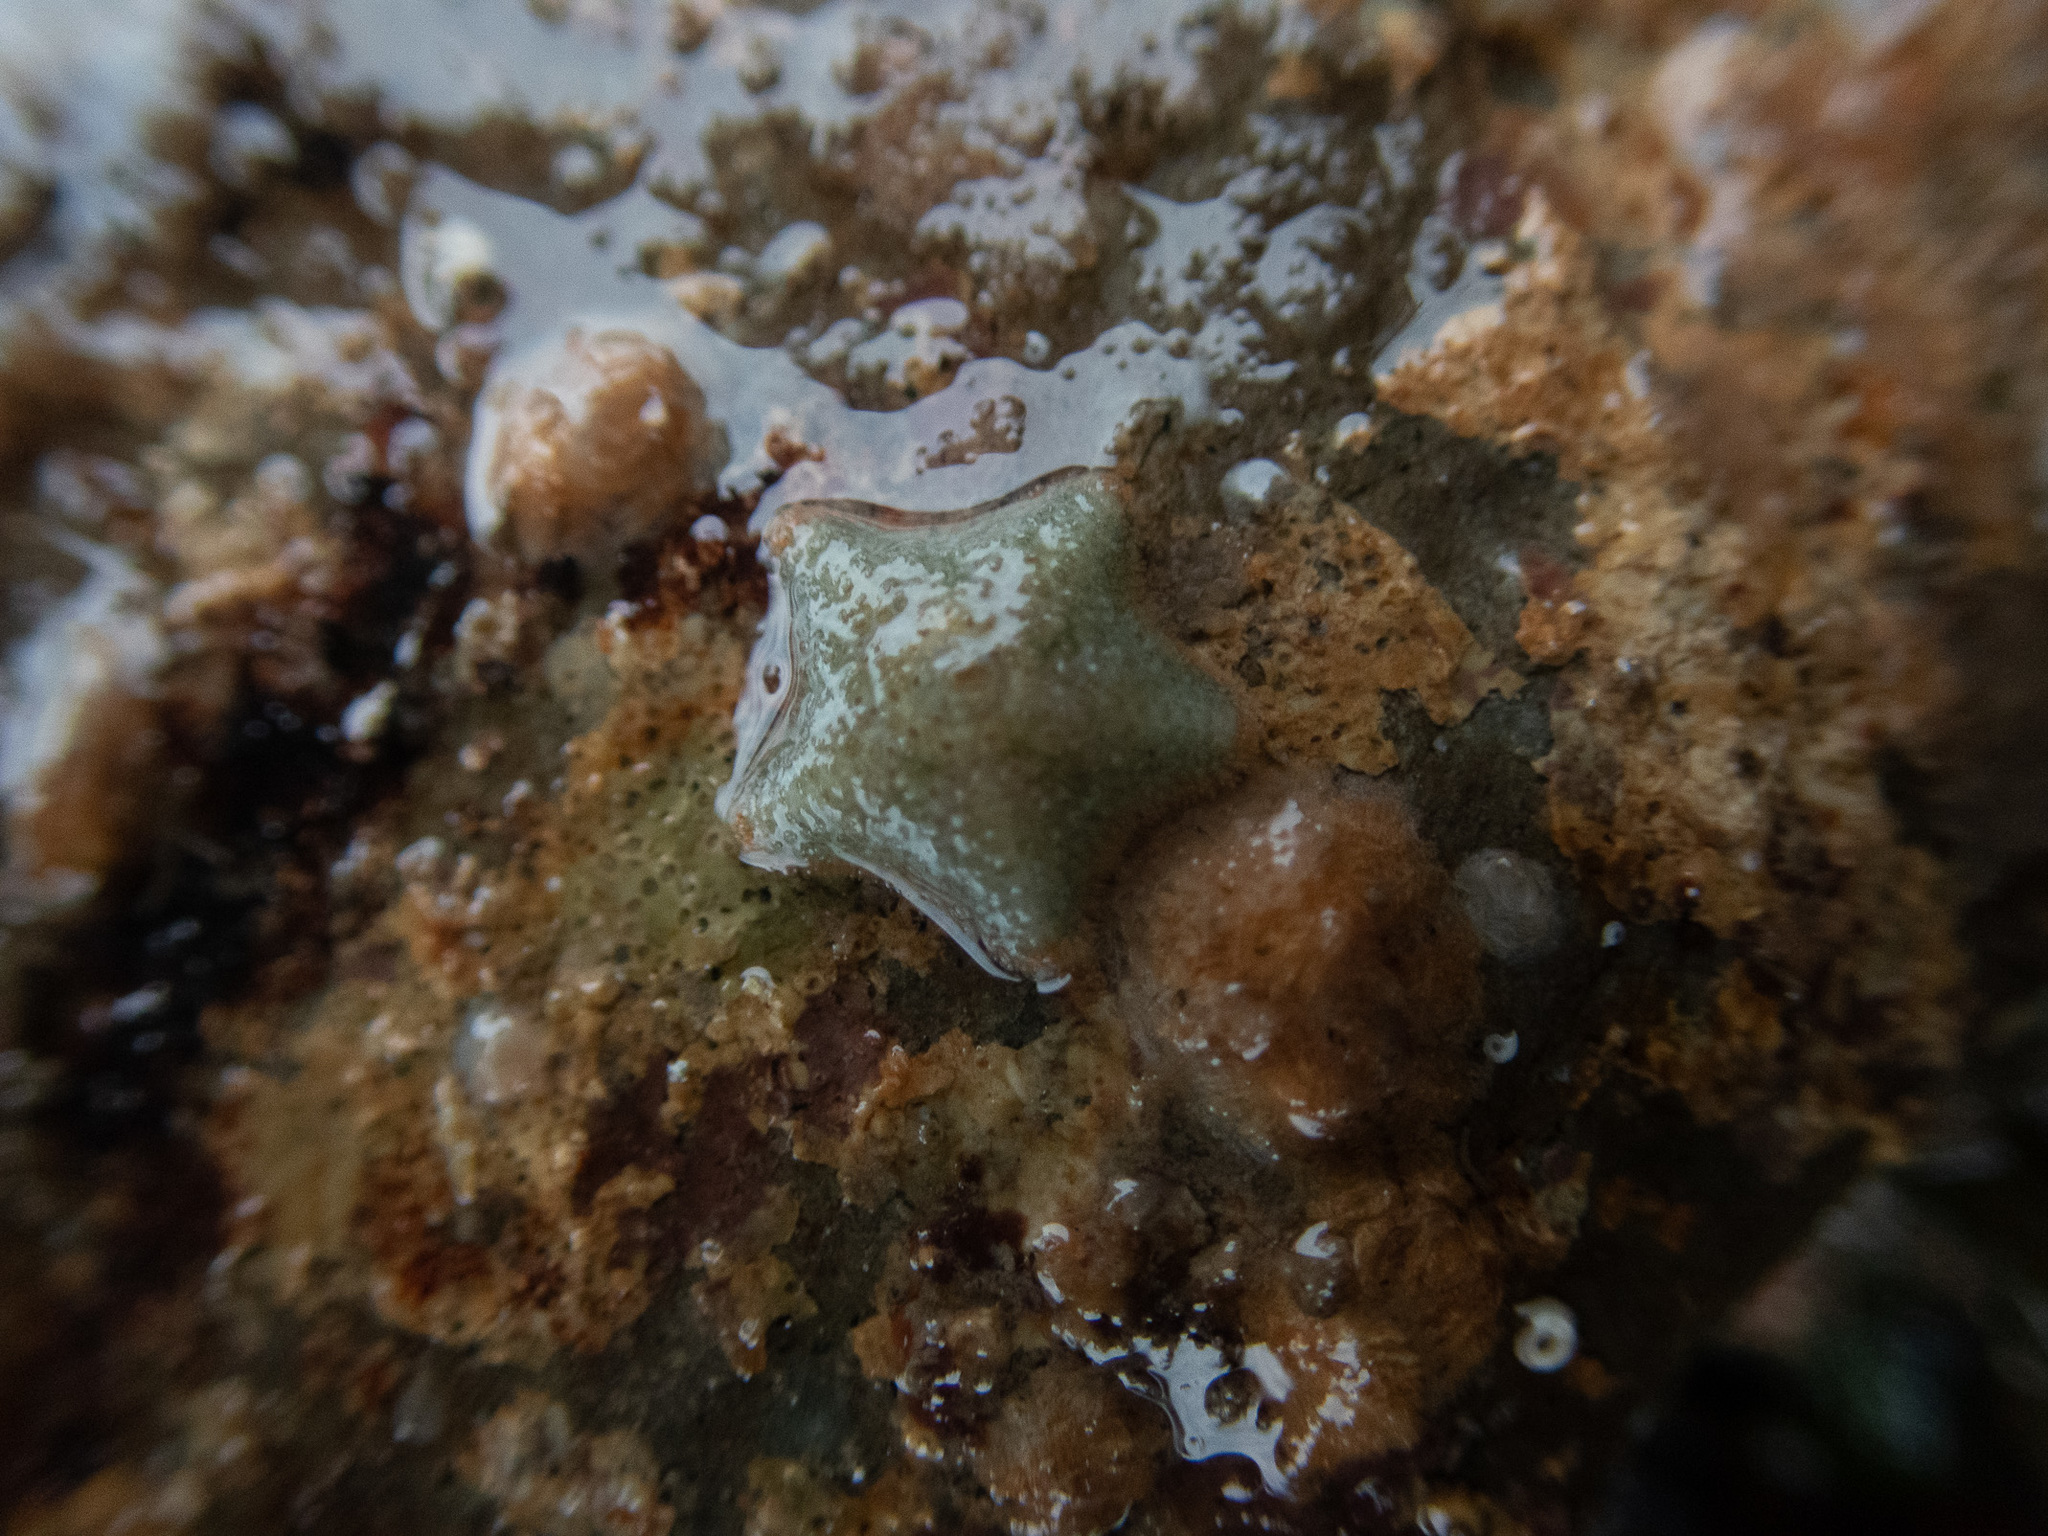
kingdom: Animalia
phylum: Echinodermata
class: Asteroidea
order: Valvatida
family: Asterinidae
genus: Asterina
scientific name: Asterina gibbosa
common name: Cushion star
